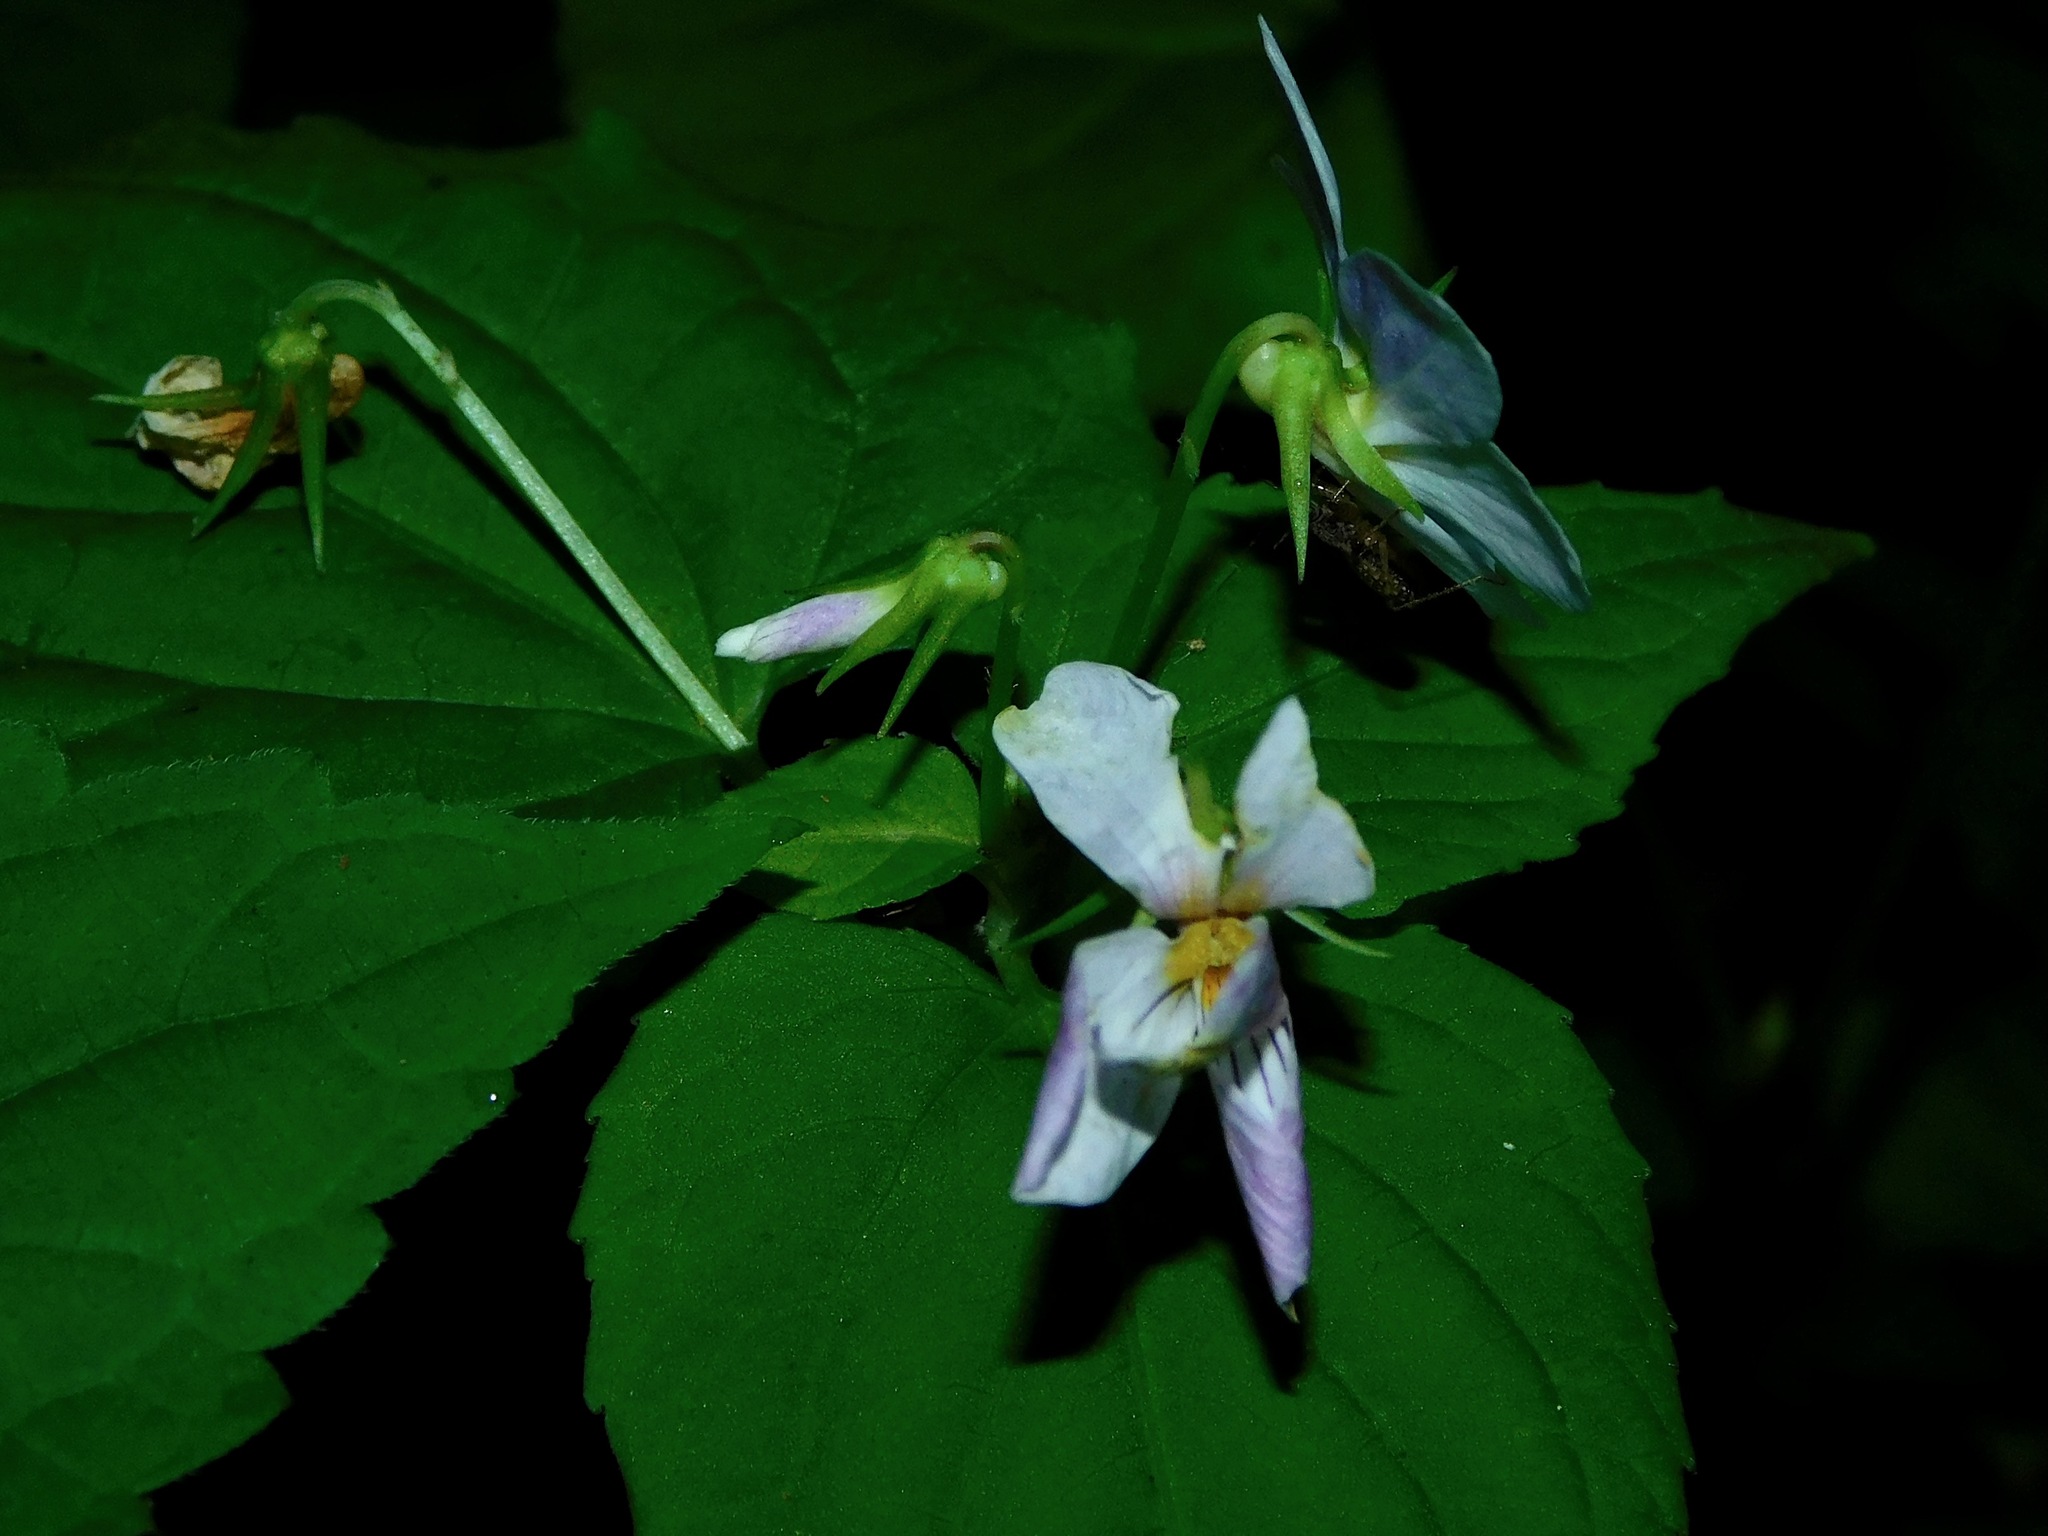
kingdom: Plantae
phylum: Tracheophyta
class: Magnoliopsida
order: Malpighiales
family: Violaceae
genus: Viola
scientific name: Viola canadensis
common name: Canada violet
